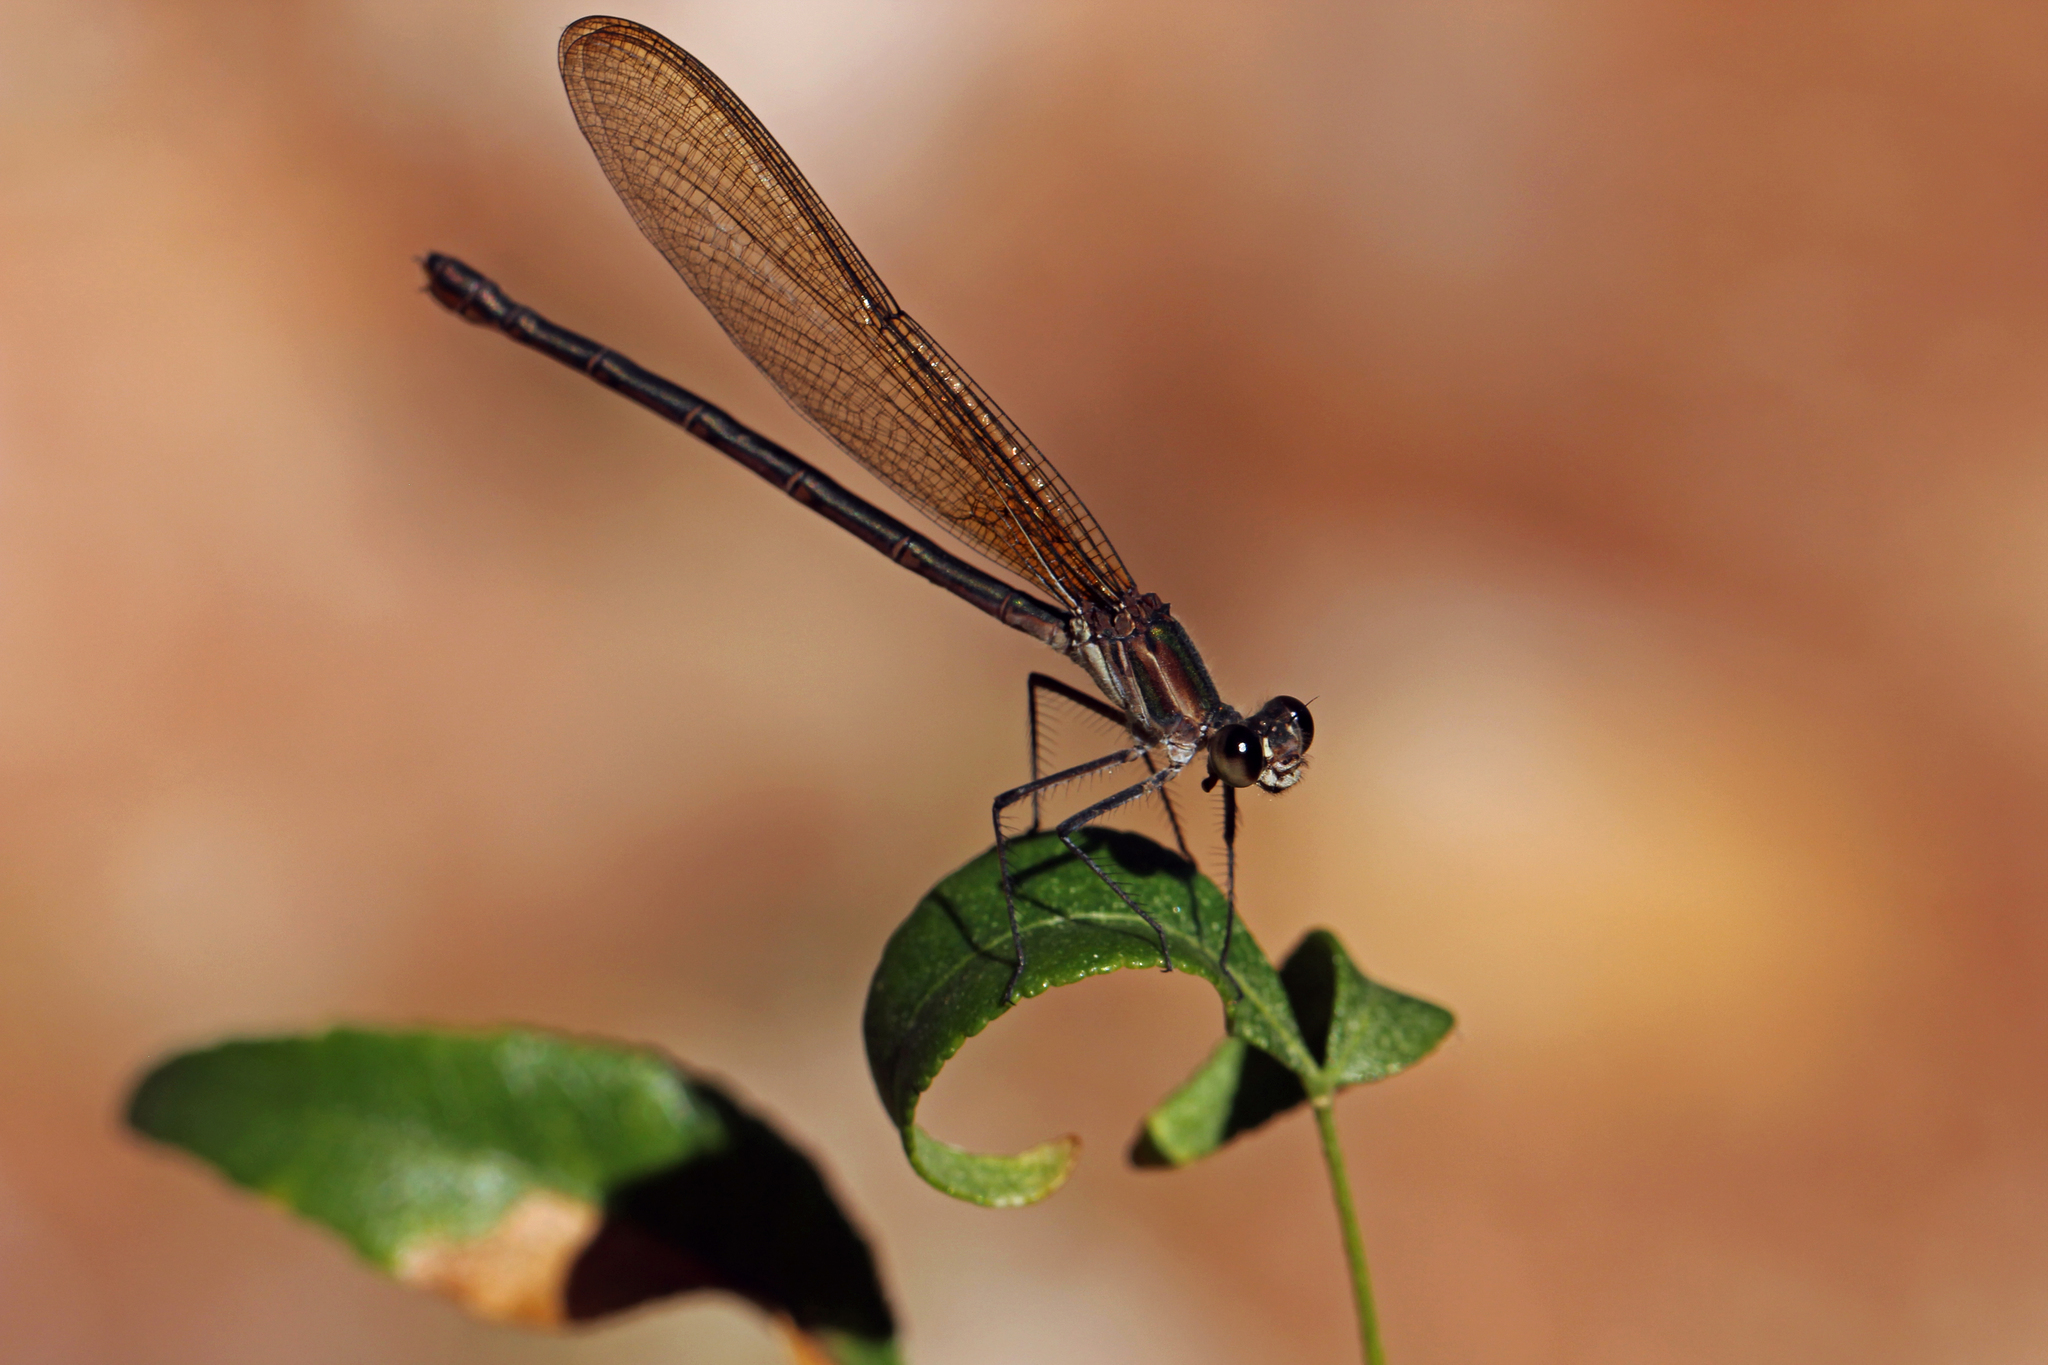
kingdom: Animalia
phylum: Arthropoda
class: Insecta
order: Odonata
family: Calopterygidae
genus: Hetaerina
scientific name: Hetaerina vulnerata
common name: Canyon rubyspot
